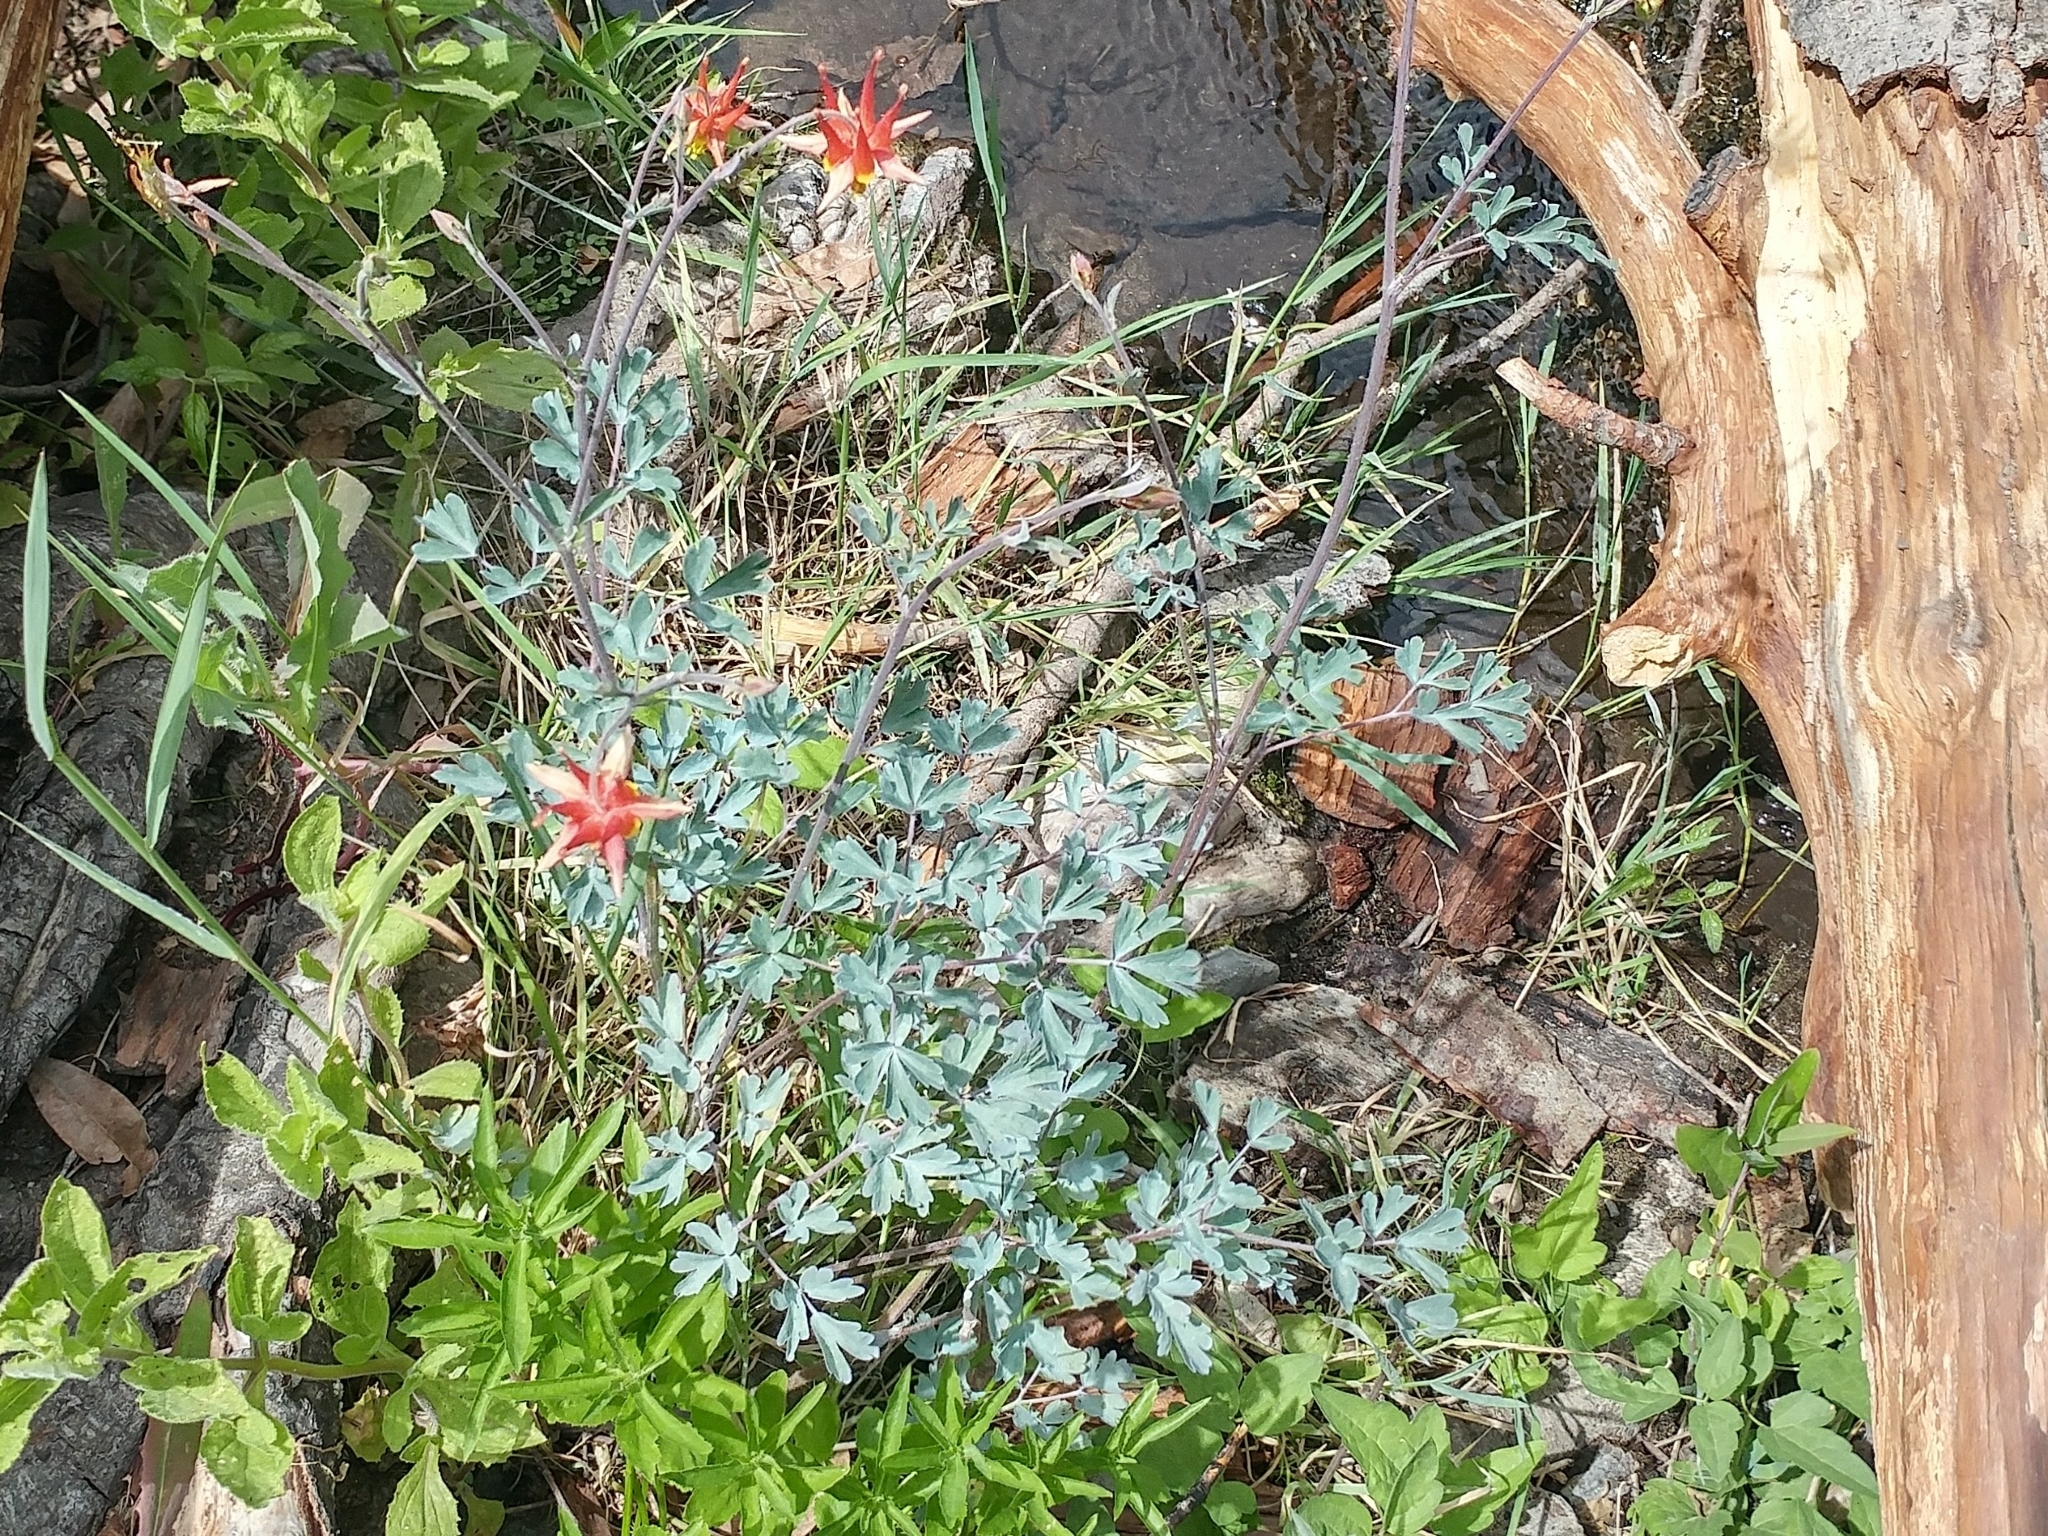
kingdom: Plantae
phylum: Tracheophyta
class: Magnoliopsida
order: Ranunculales
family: Ranunculaceae
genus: Aquilegia
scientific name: Aquilegia formosa
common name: Sitka columbine
